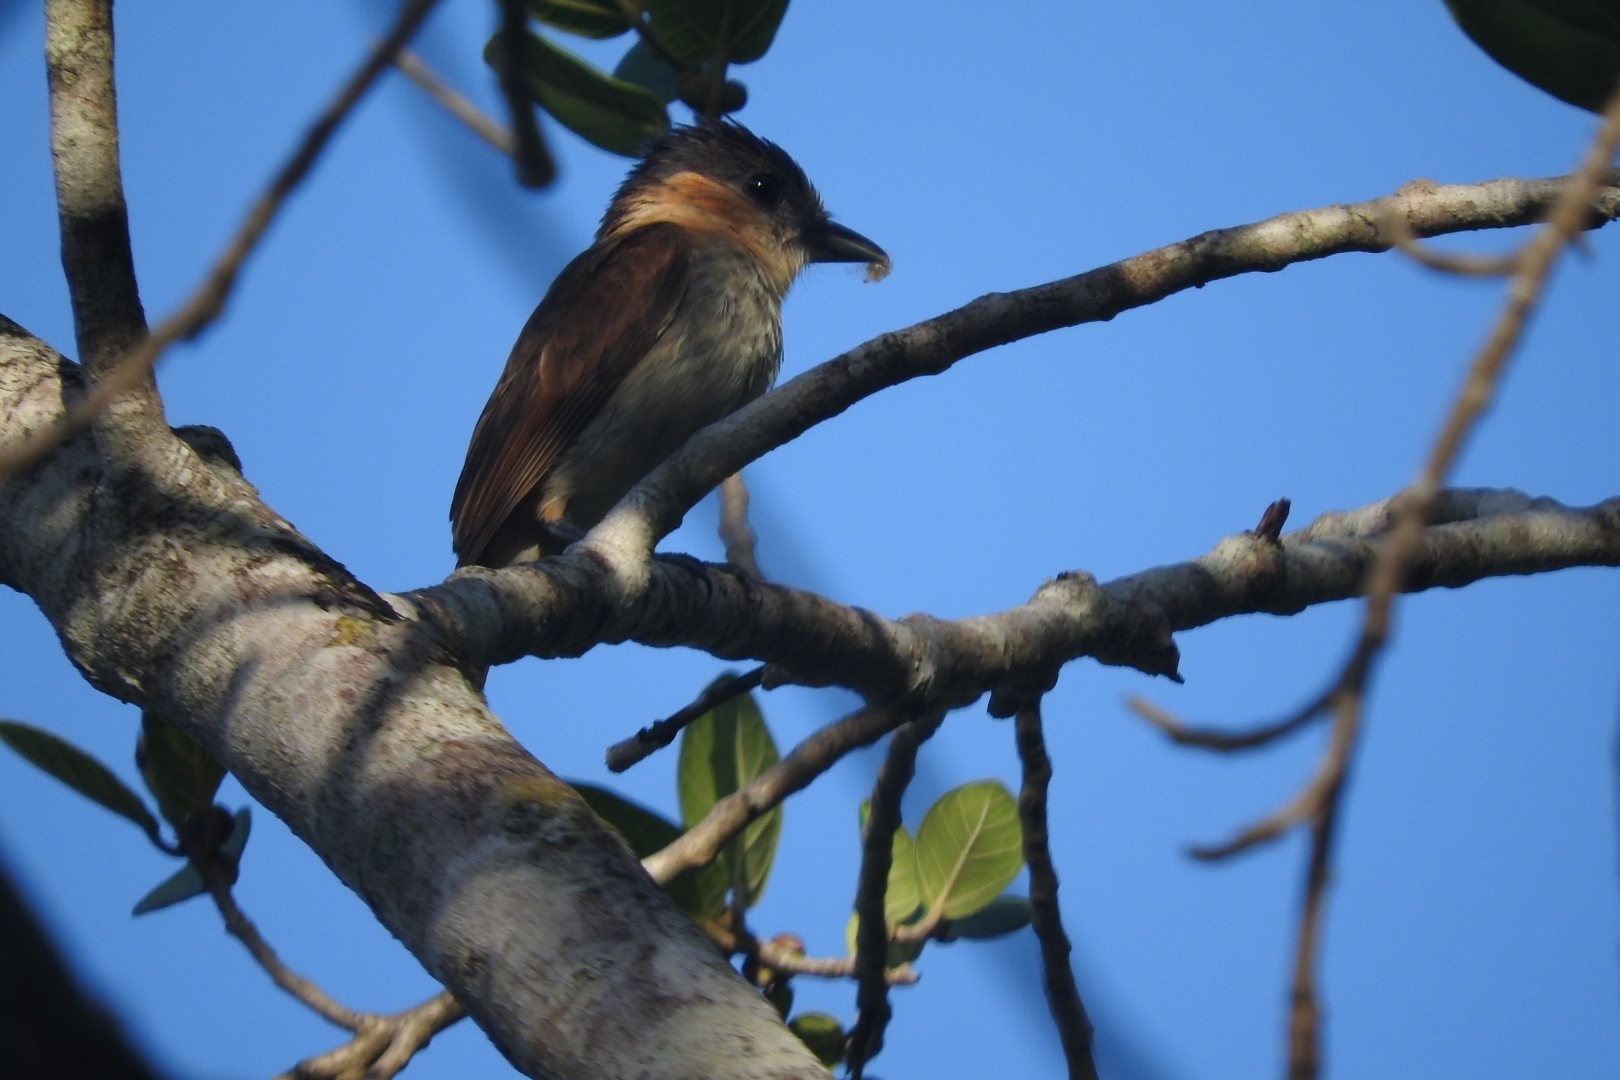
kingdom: Animalia
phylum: Chordata
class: Aves
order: Passeriformes
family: Cotingidae
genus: Pachyramphus
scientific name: Pachyramphus aglaiae
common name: Rose-throated becard
